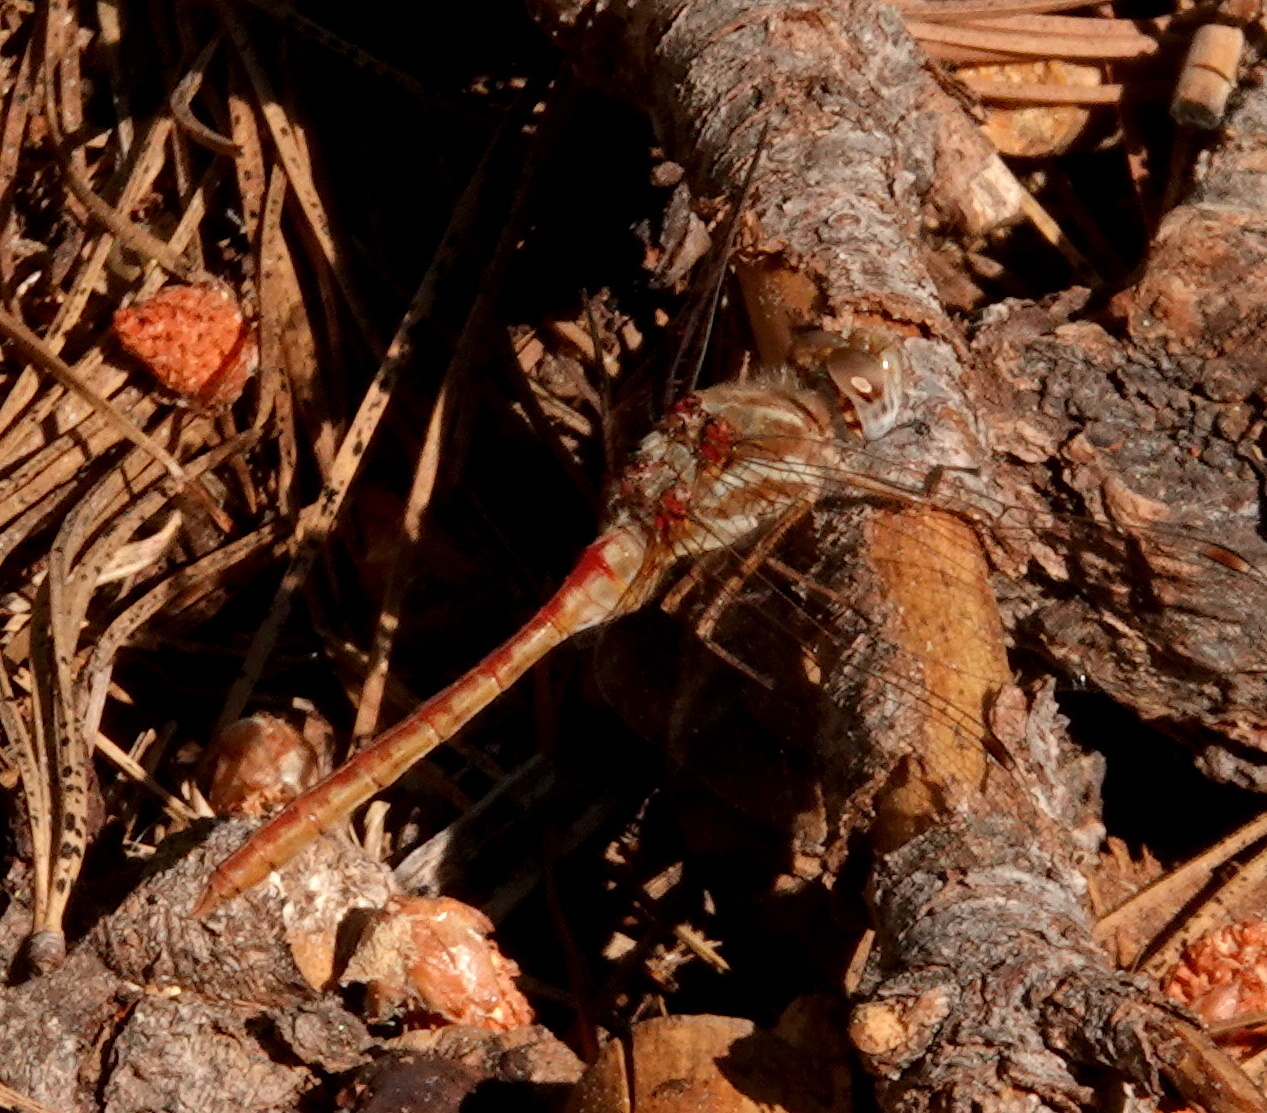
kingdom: Animalia
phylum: Arthropoda
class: Insecta
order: Odonata
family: Libellulidae
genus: Sympetrum
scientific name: Sympetrum pallipes
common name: Striped meadowhawk
